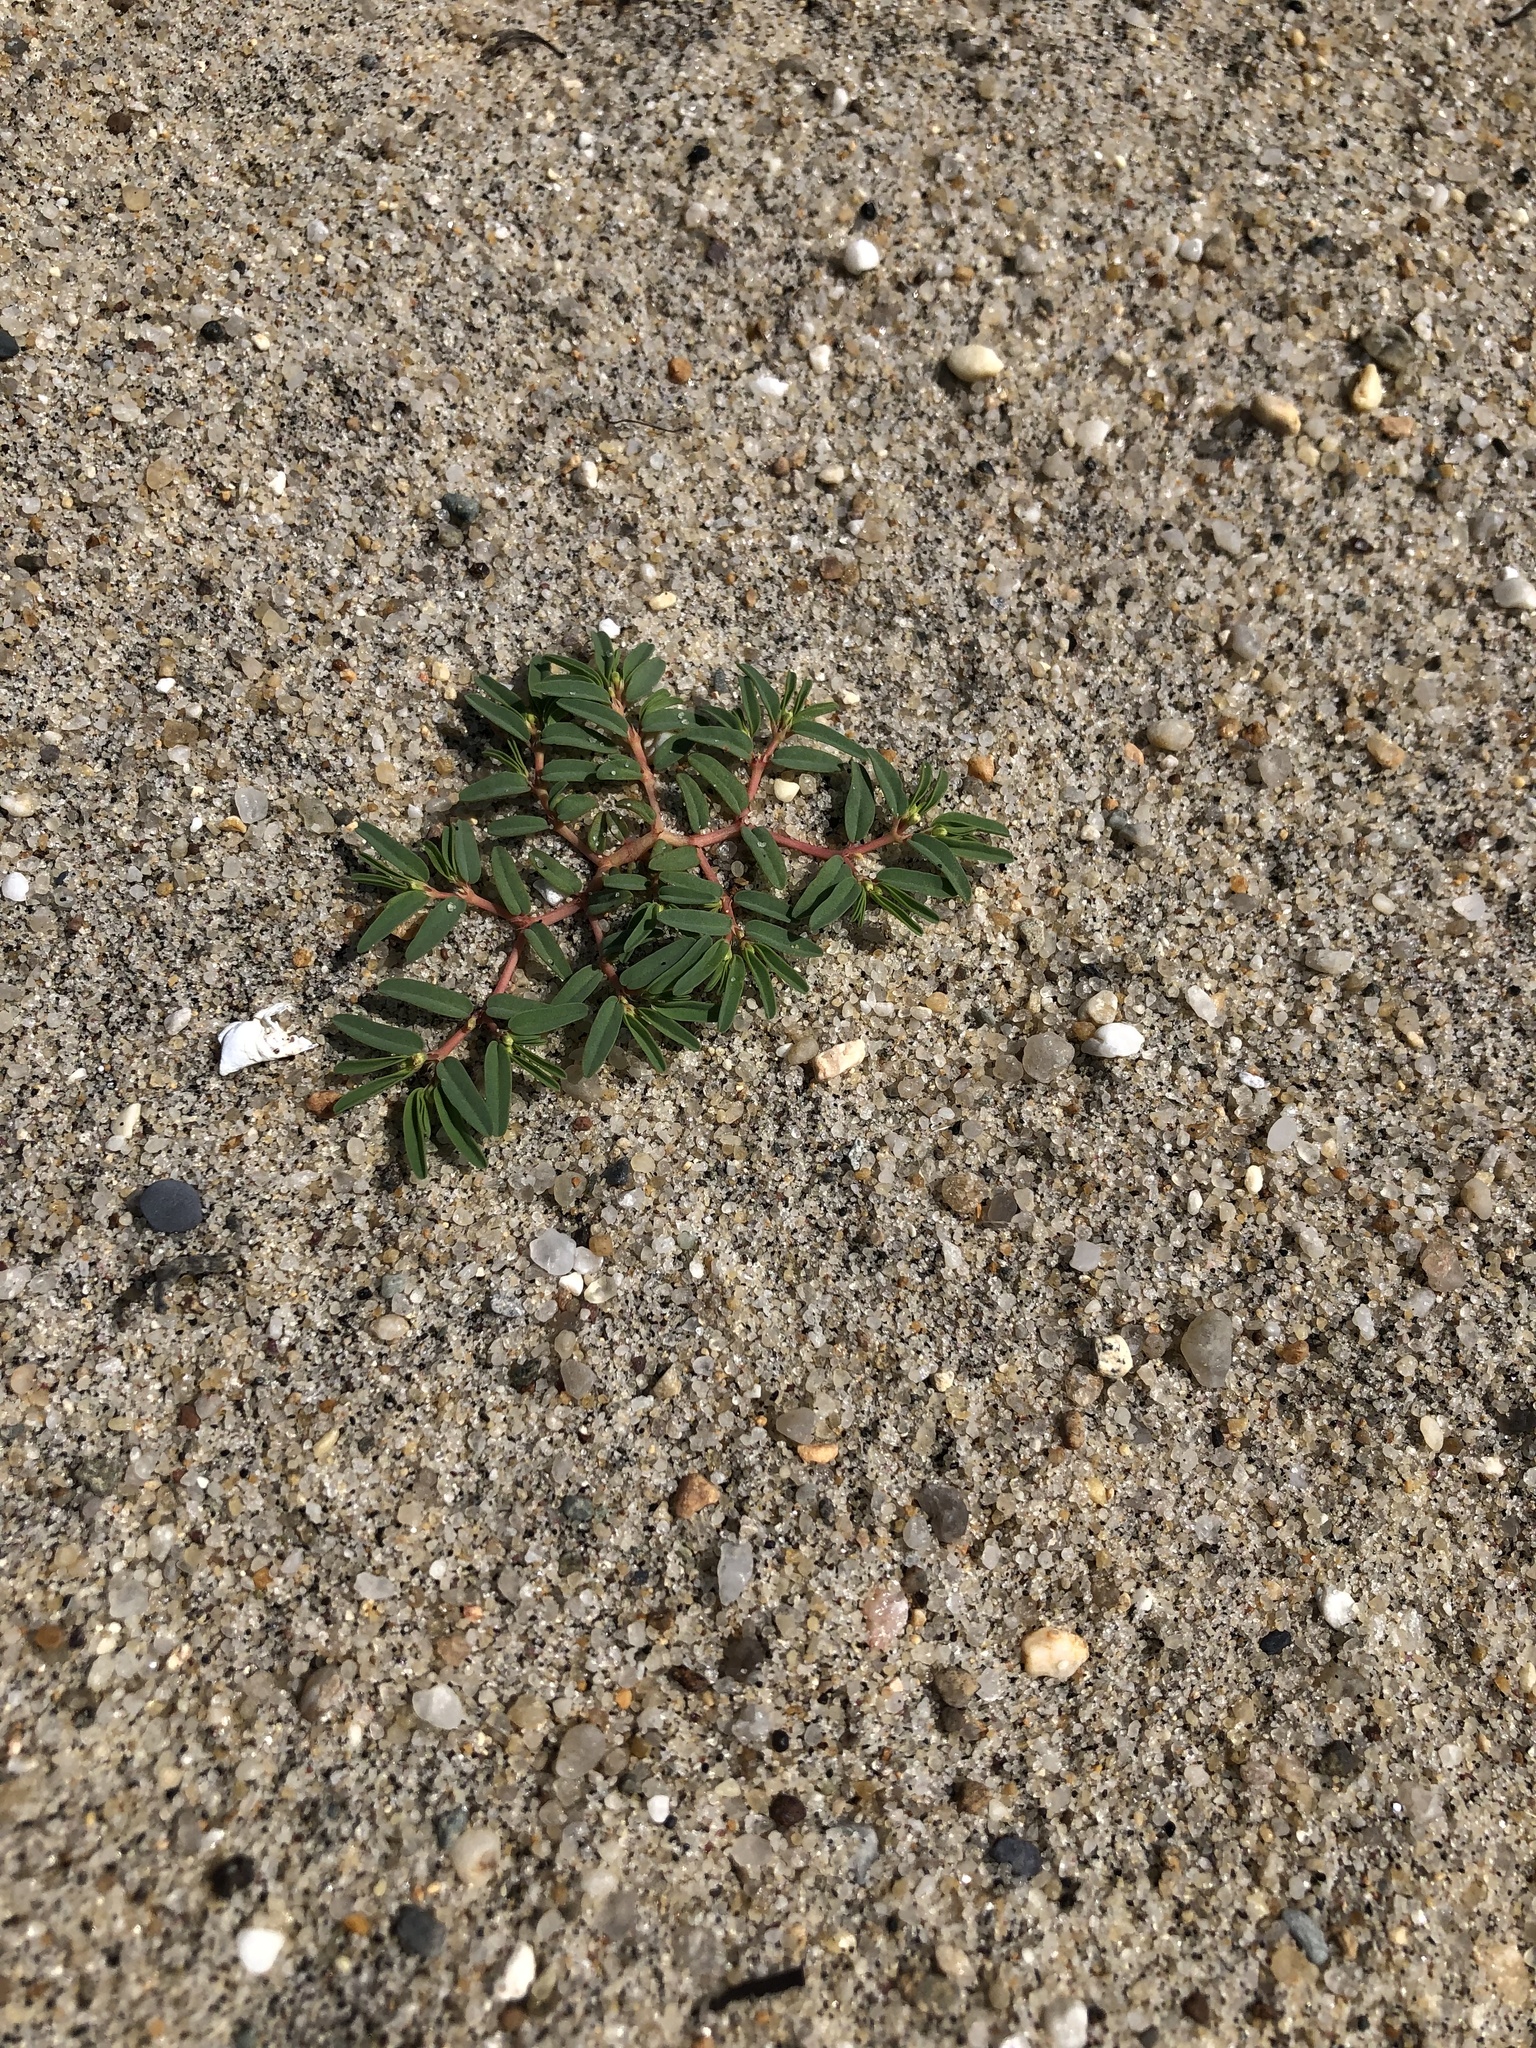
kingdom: Plantae
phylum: Tracheophyta
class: Magnoliopsida
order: Malpighiales
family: Euphorbiaceae
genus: Euphorbia
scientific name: Euphorbia polygonifolia
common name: Knotweed spurge
